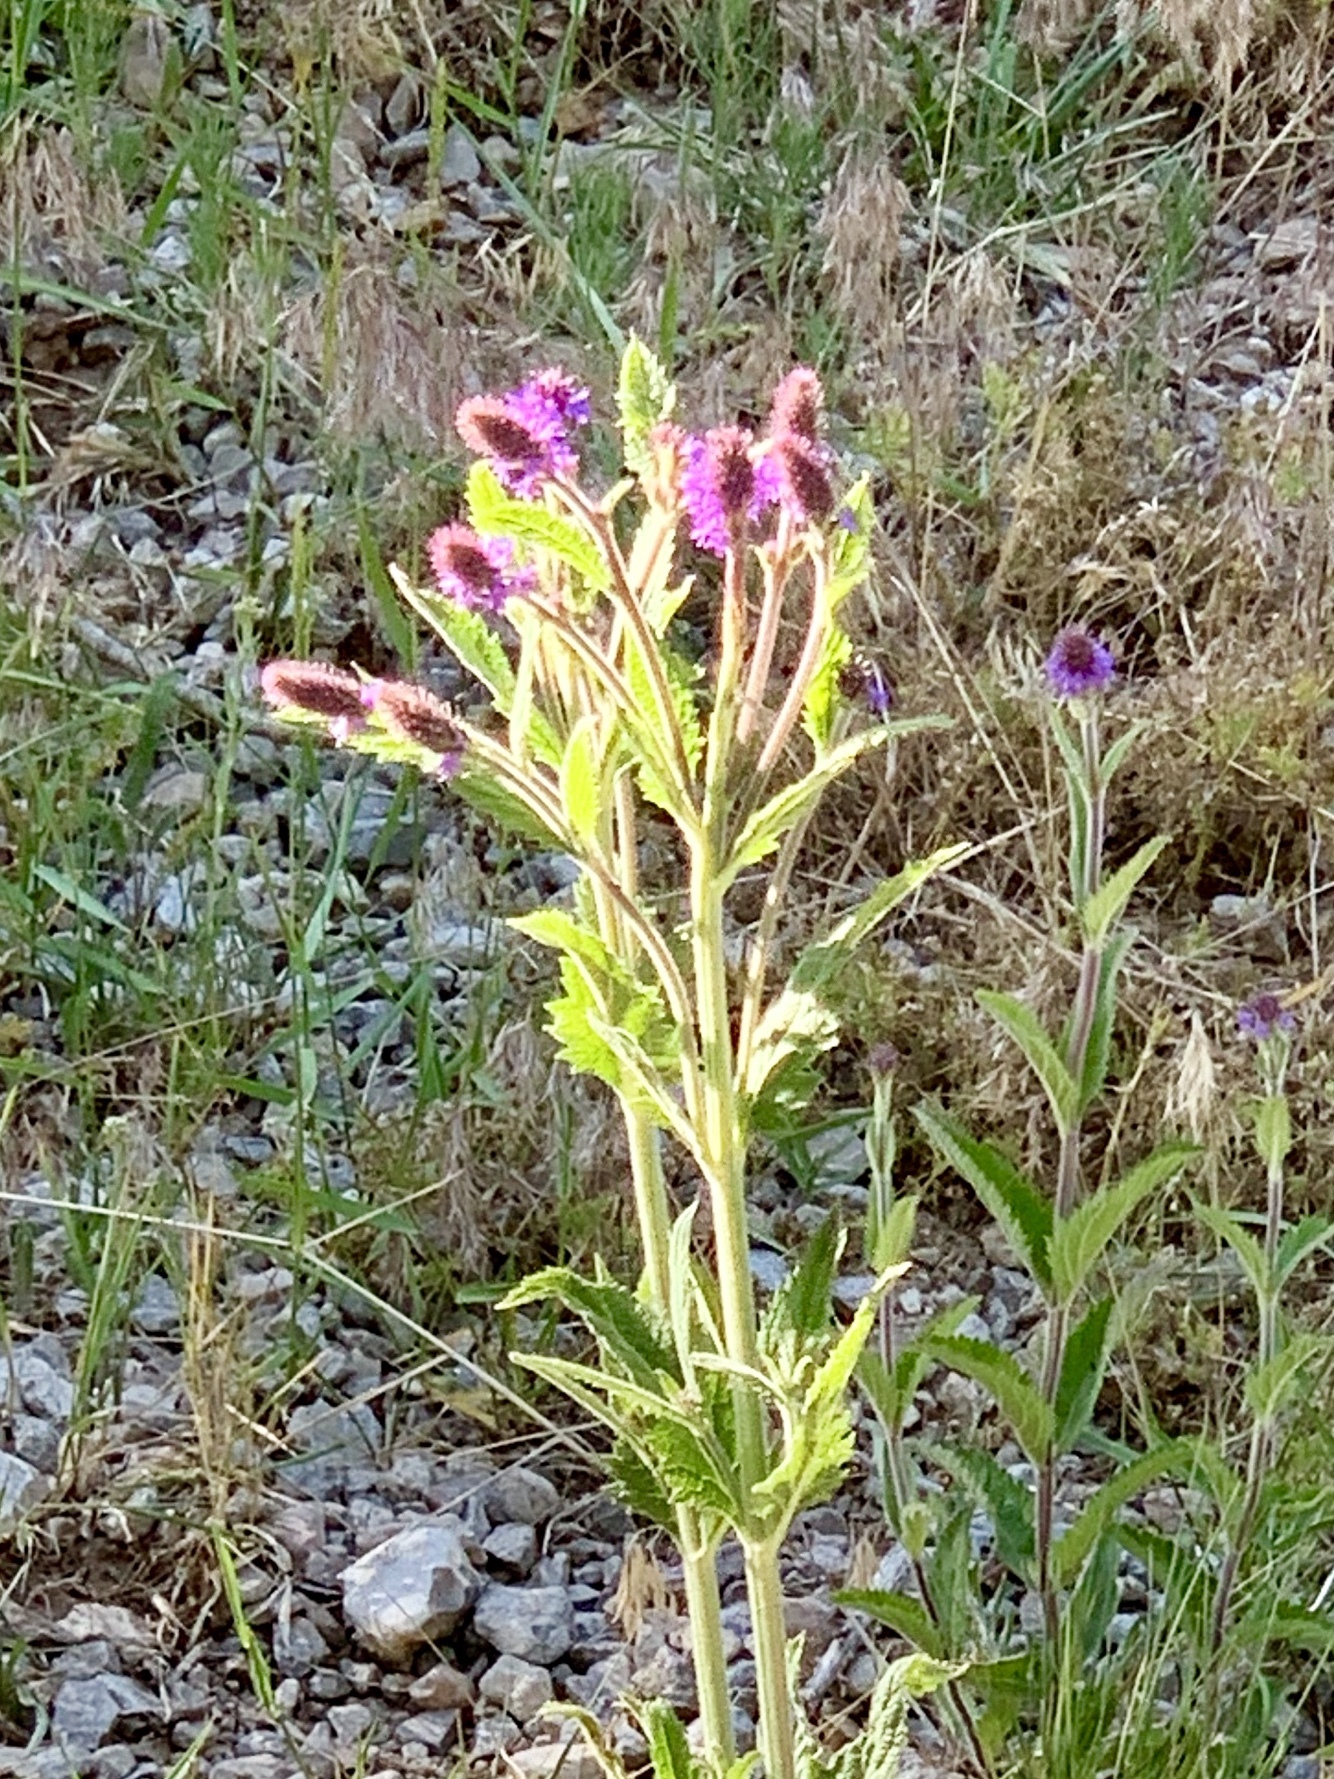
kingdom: Plantae
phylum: Tracheophyta
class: Magnoliopsida
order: Lamiales
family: Verbenaceae
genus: Verbena
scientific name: Verbena macdougalii
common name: New mexico vervain
